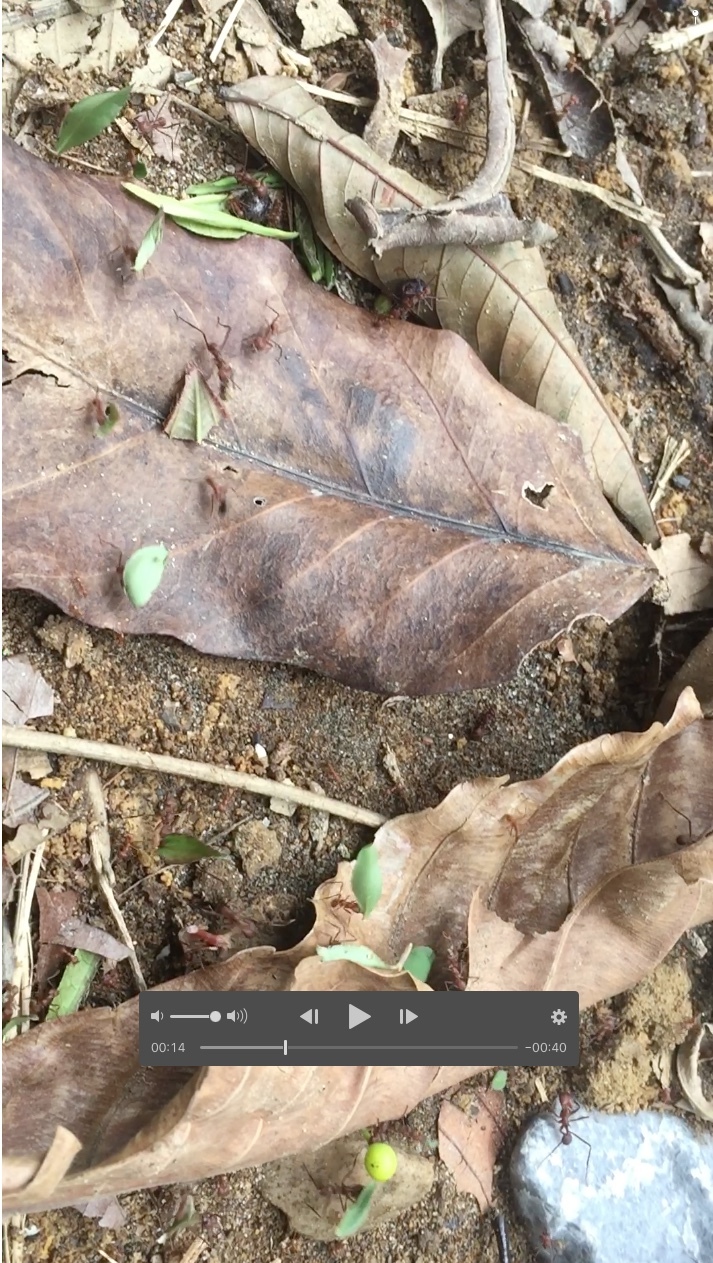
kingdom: Animalia
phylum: Arthropoda
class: Insecta
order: Hymenoptera
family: Formicidae
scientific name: Formicidae
